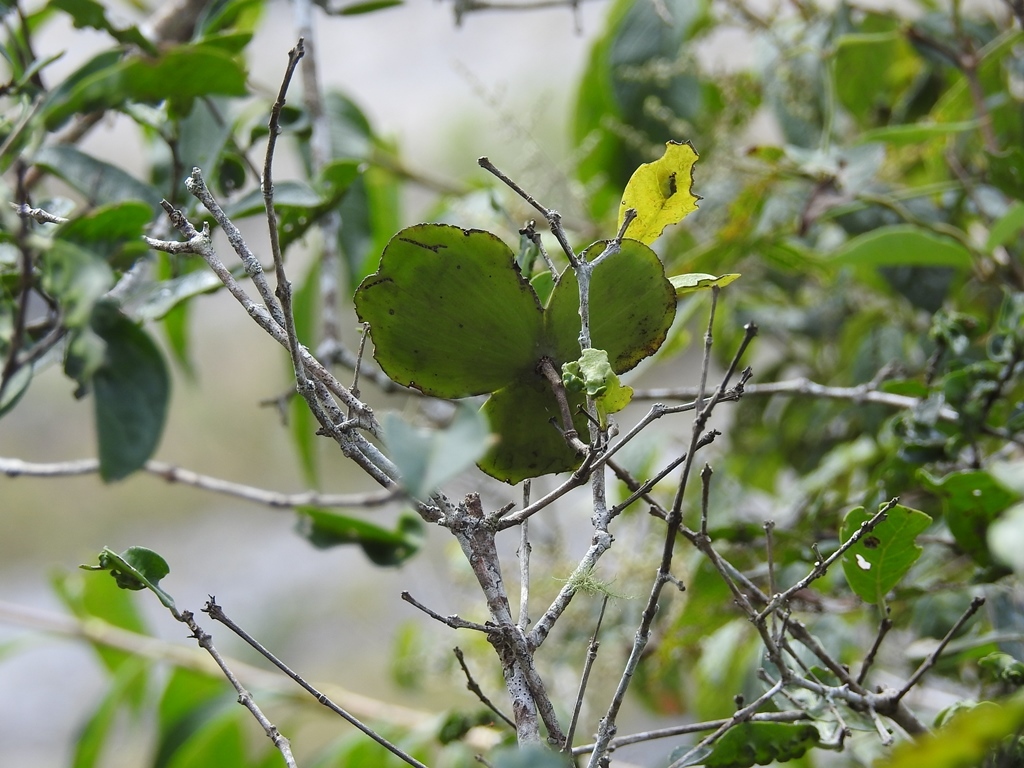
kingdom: Plantae
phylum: Tracheophyta
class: Magnoliopsida
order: Celastrales
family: Celastraceae
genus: Semialarium
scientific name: Semialarium mexicanum
